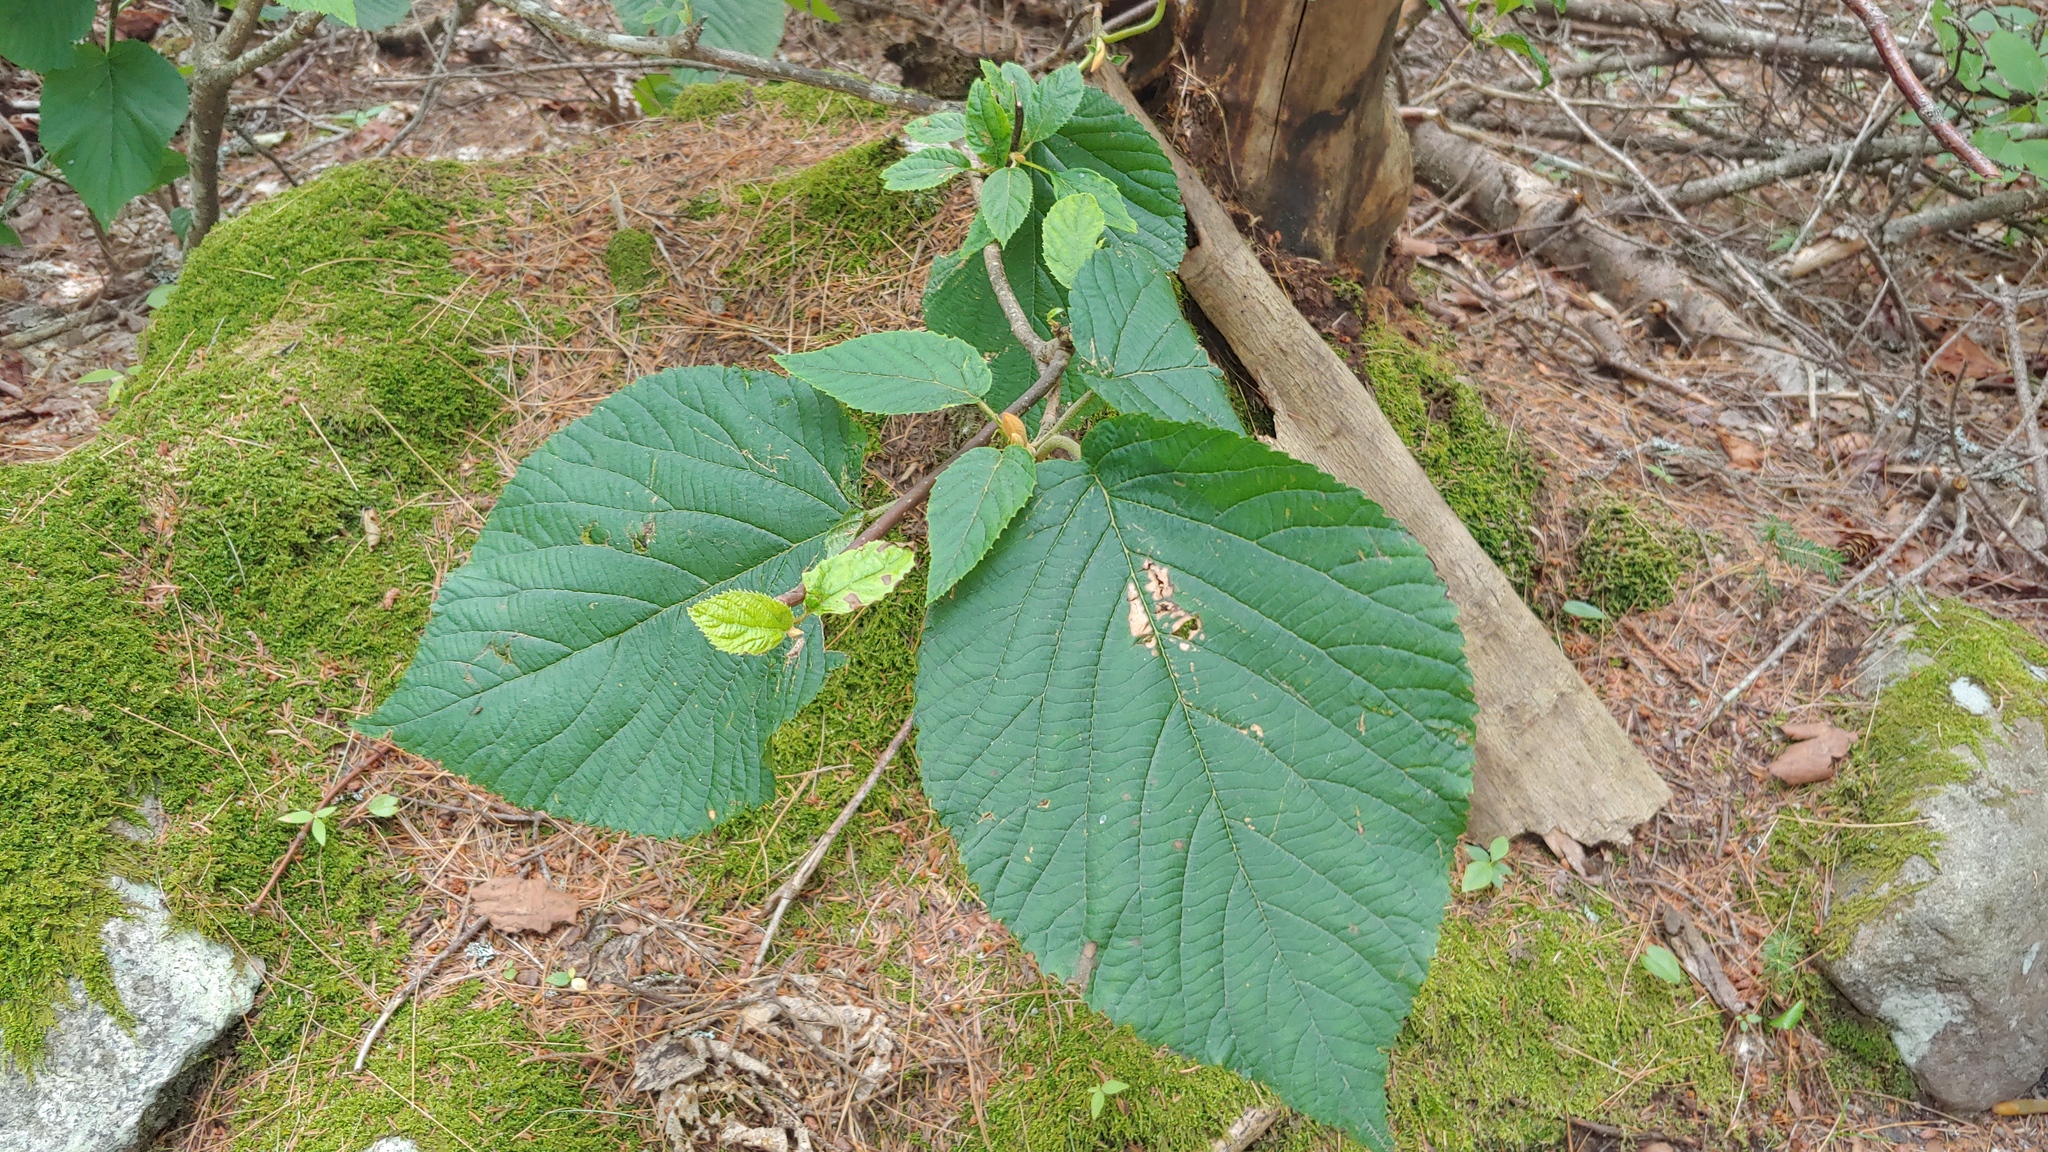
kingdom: Plantae
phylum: Tracheophyta
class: Magnoliopsida
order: Dipsacales
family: Viburnaceae
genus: Viburnum
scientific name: Viburnum lantanoides
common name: Hobblebush
